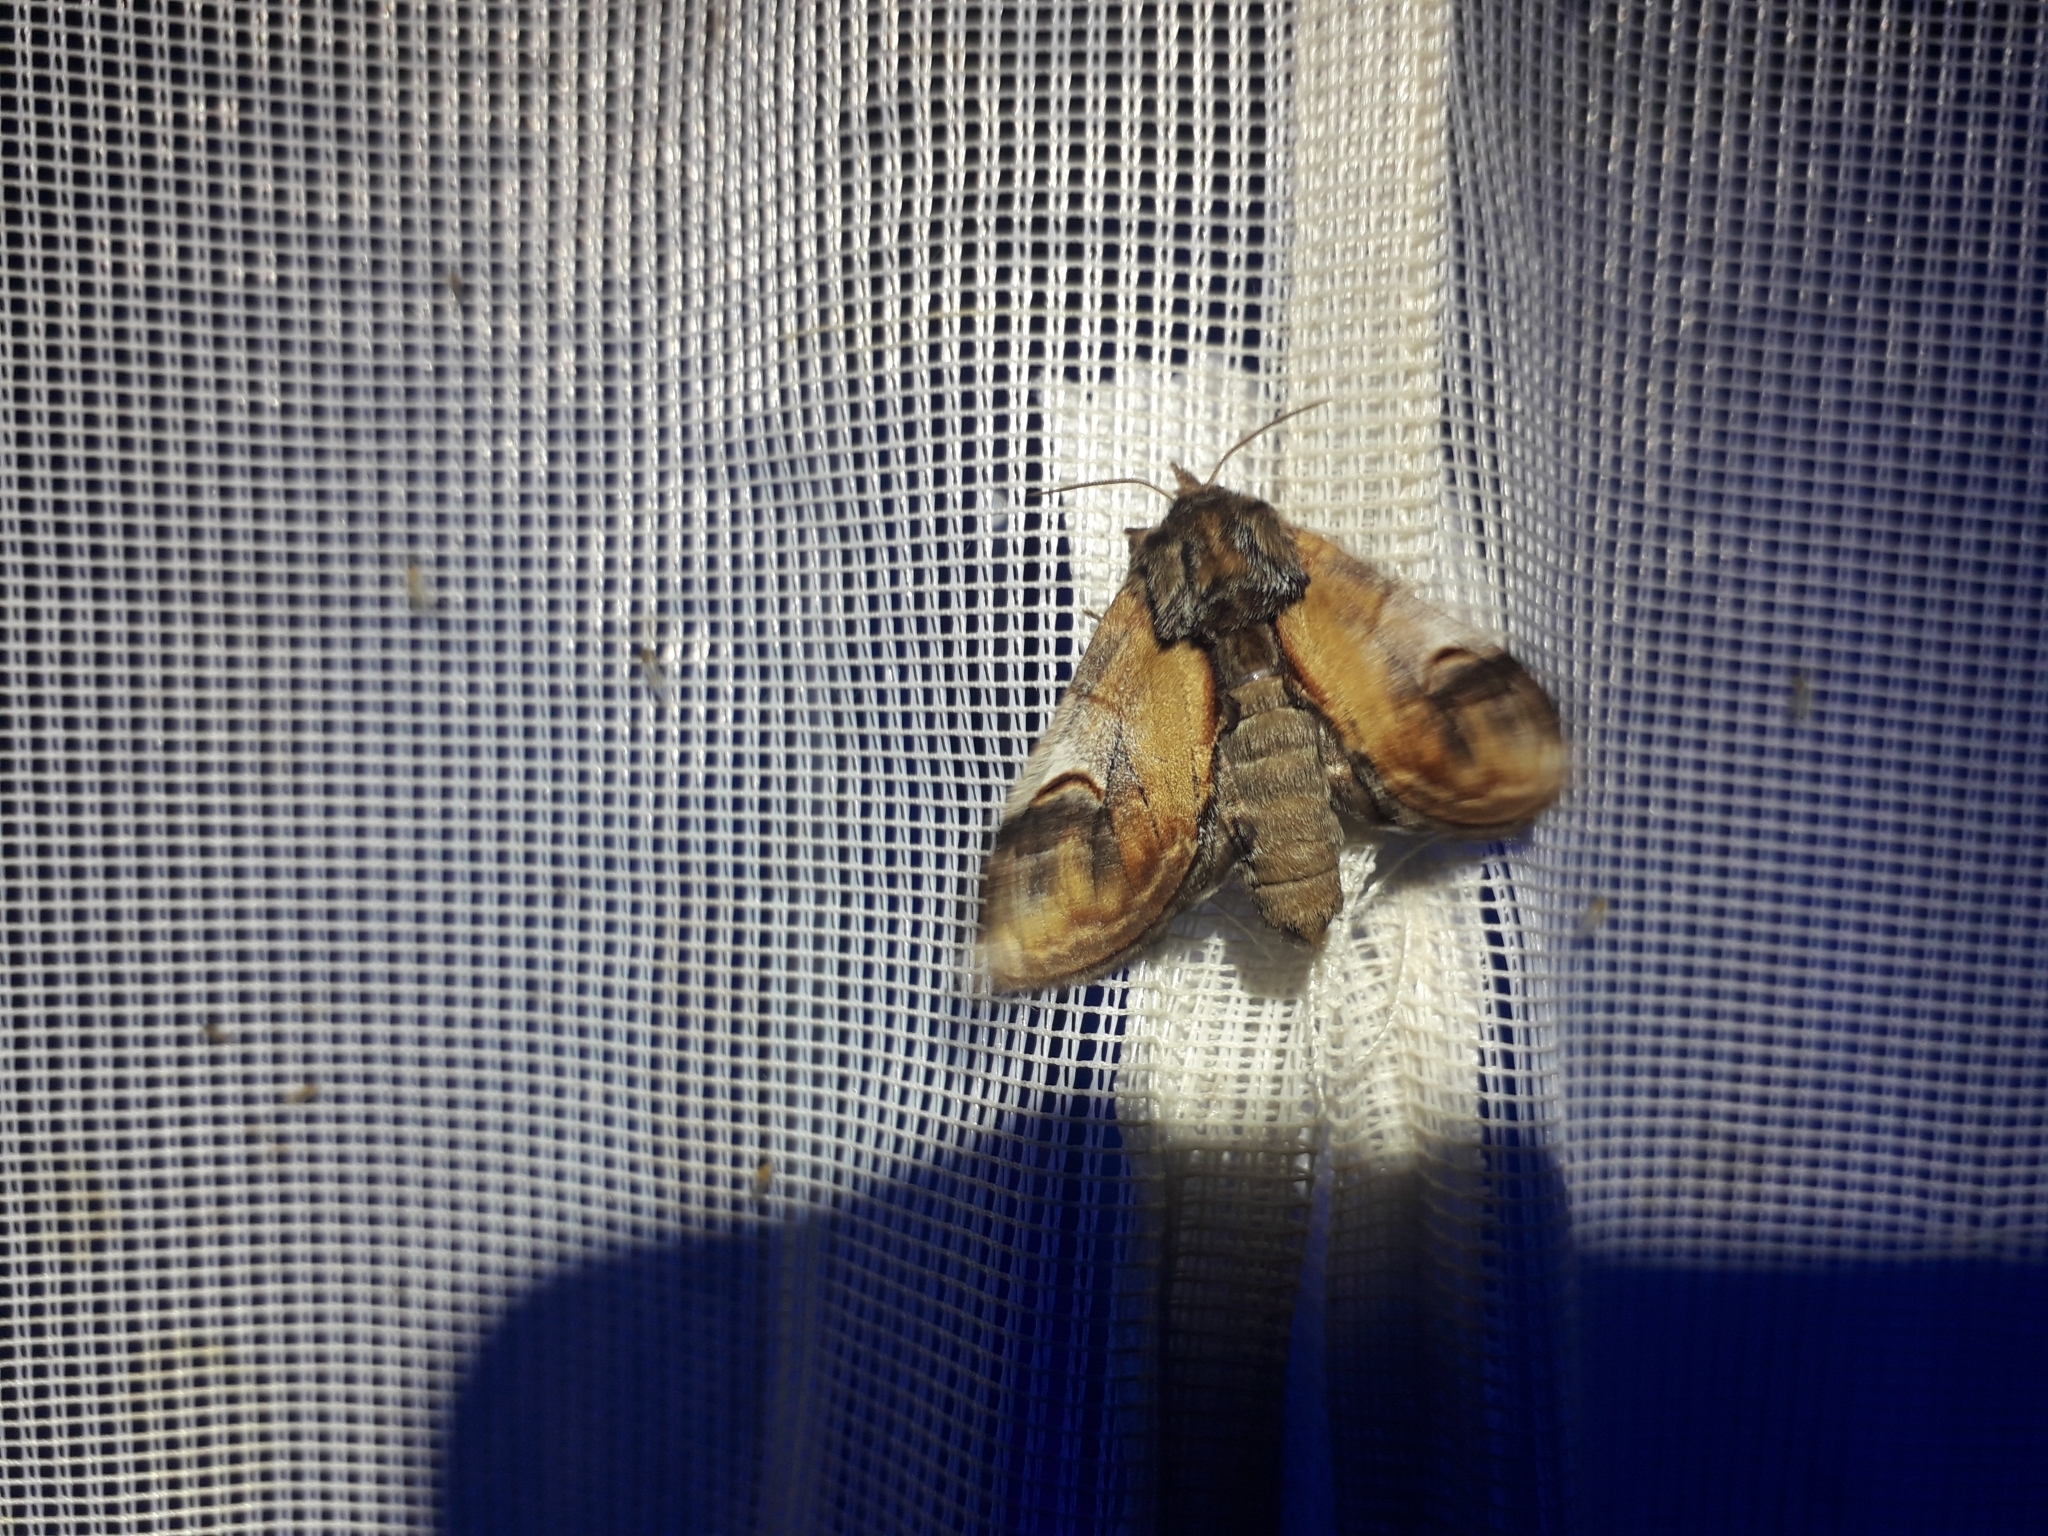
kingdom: Animalia
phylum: Arthropoda
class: Insecta
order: Lepidoptera
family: Notodontidae
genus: Notodonta
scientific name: Notodonta ziczac
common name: Pebble prominent
